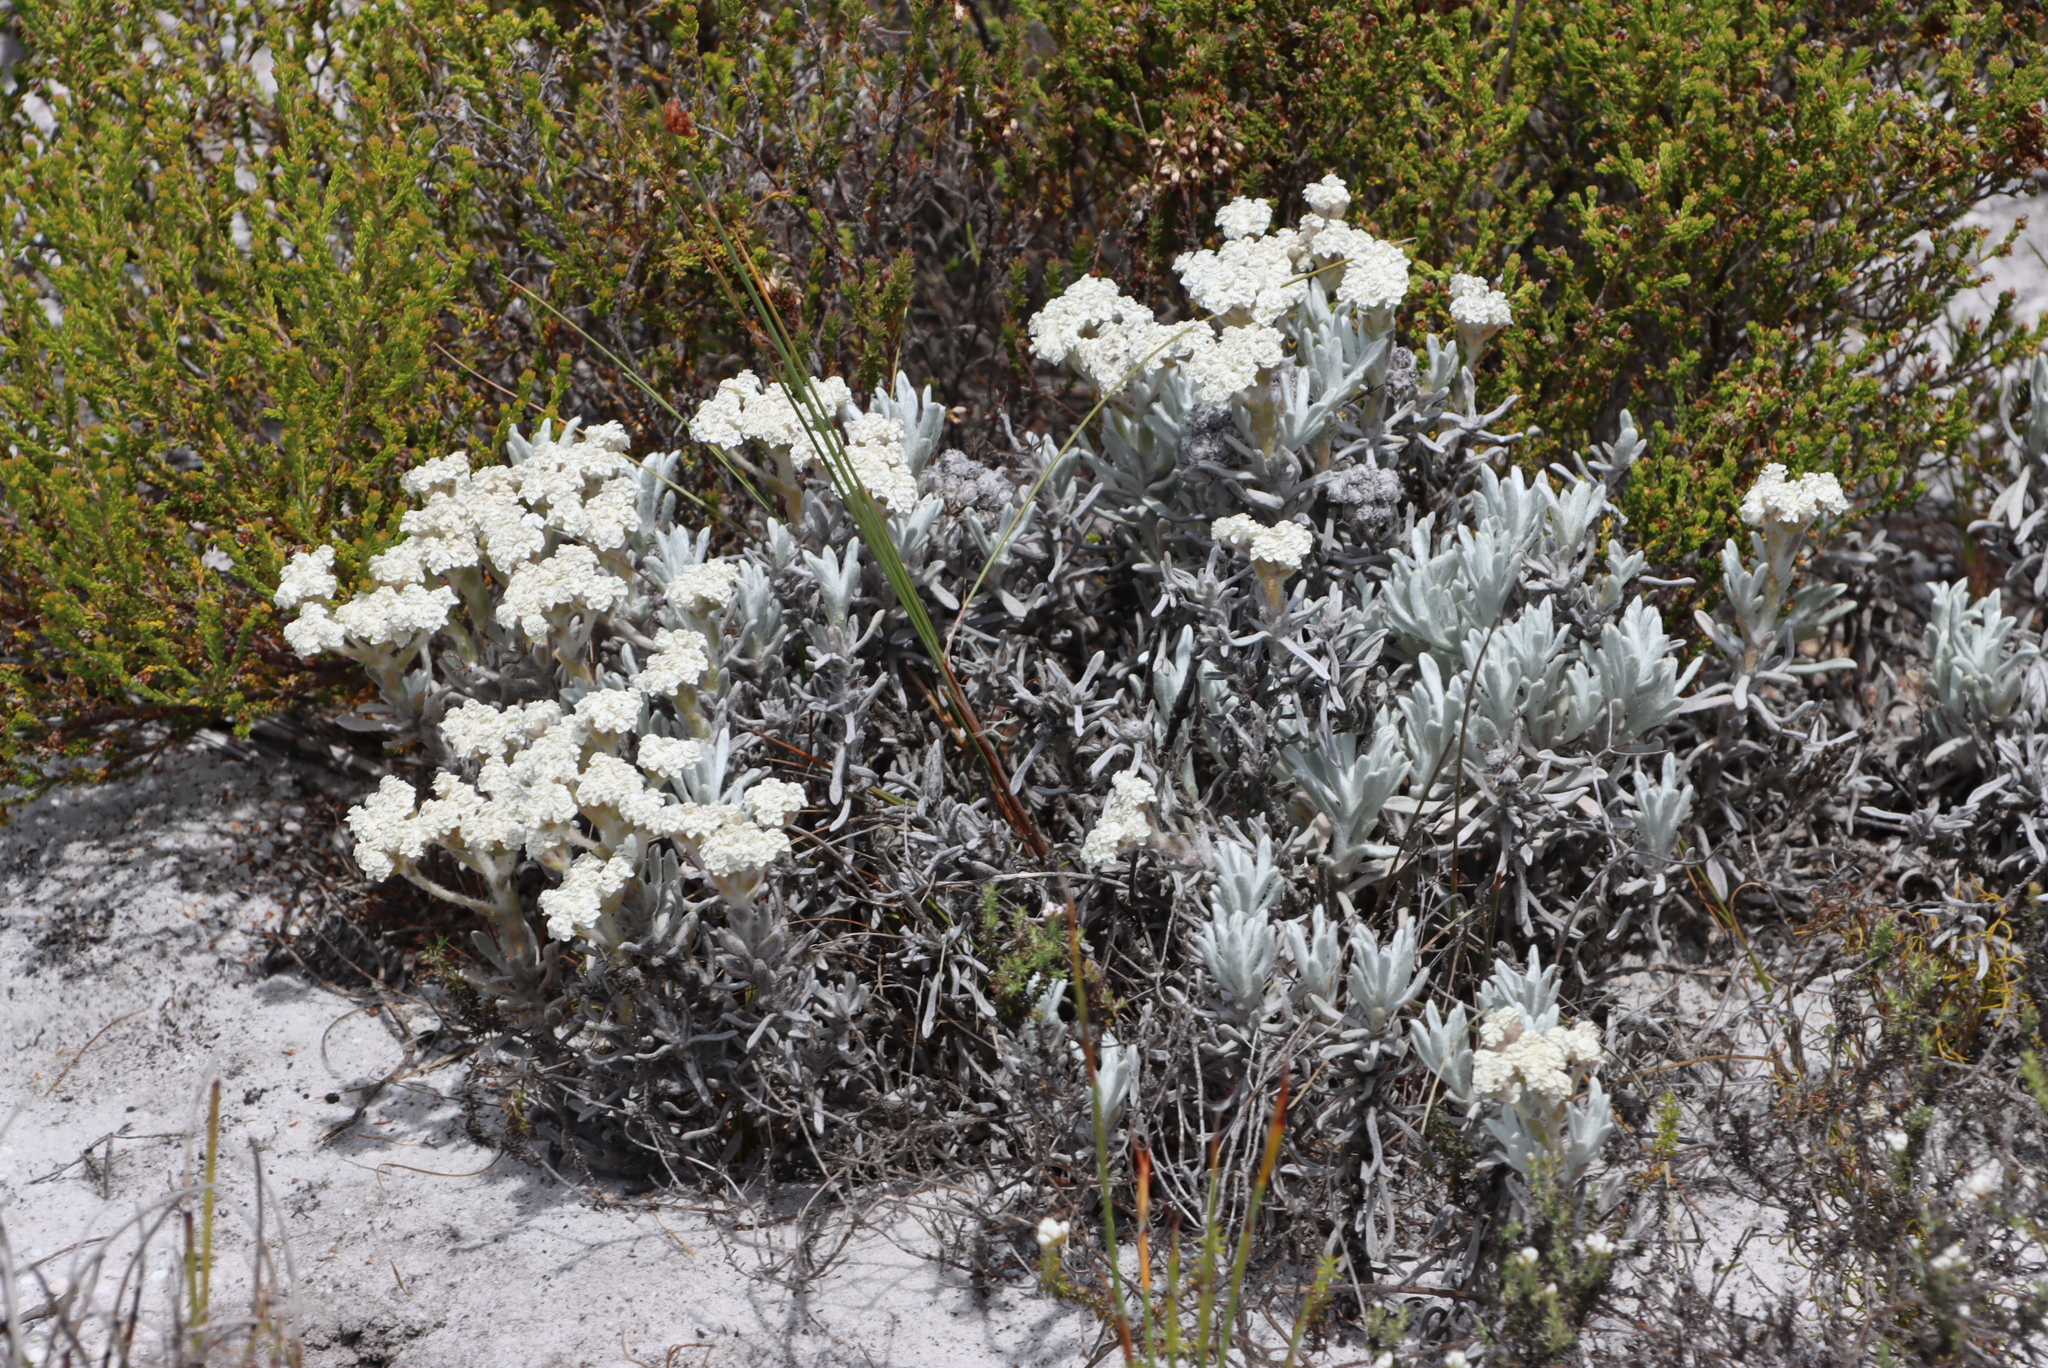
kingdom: Plantae
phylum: Tracheophyta
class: Magnoliopsida
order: Asterales
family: Asteraceae
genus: Petalacte
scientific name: Petalacte coronata
